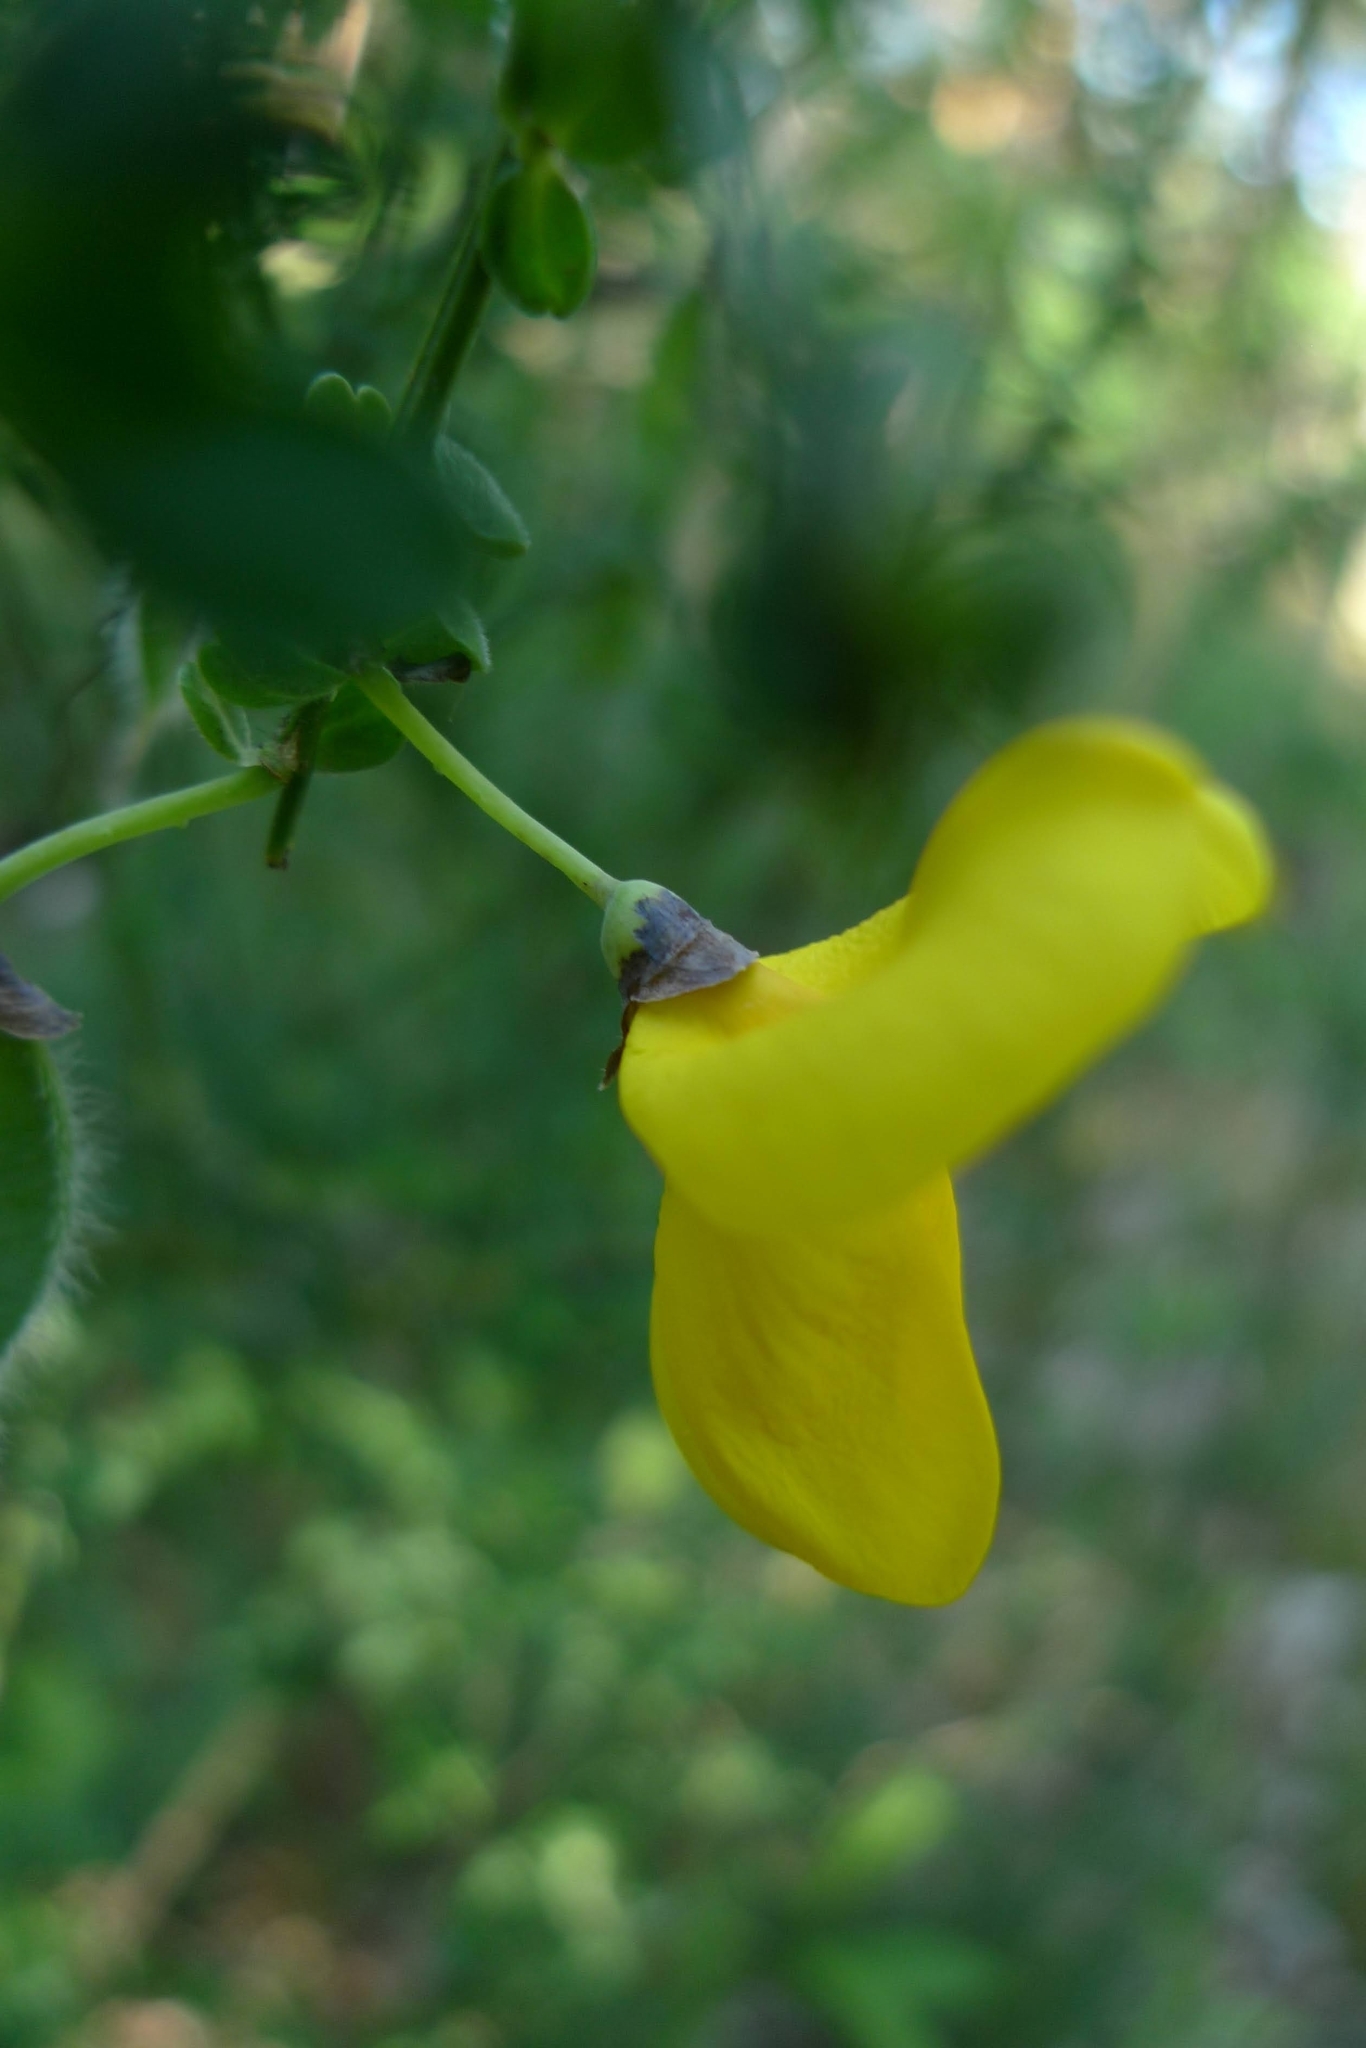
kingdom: Plantae
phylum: Tracheophyta
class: Magnoliopsida
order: Fabales
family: Fabaceae
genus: Cytisus
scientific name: Cytisus scoparius
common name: Scotch broom
